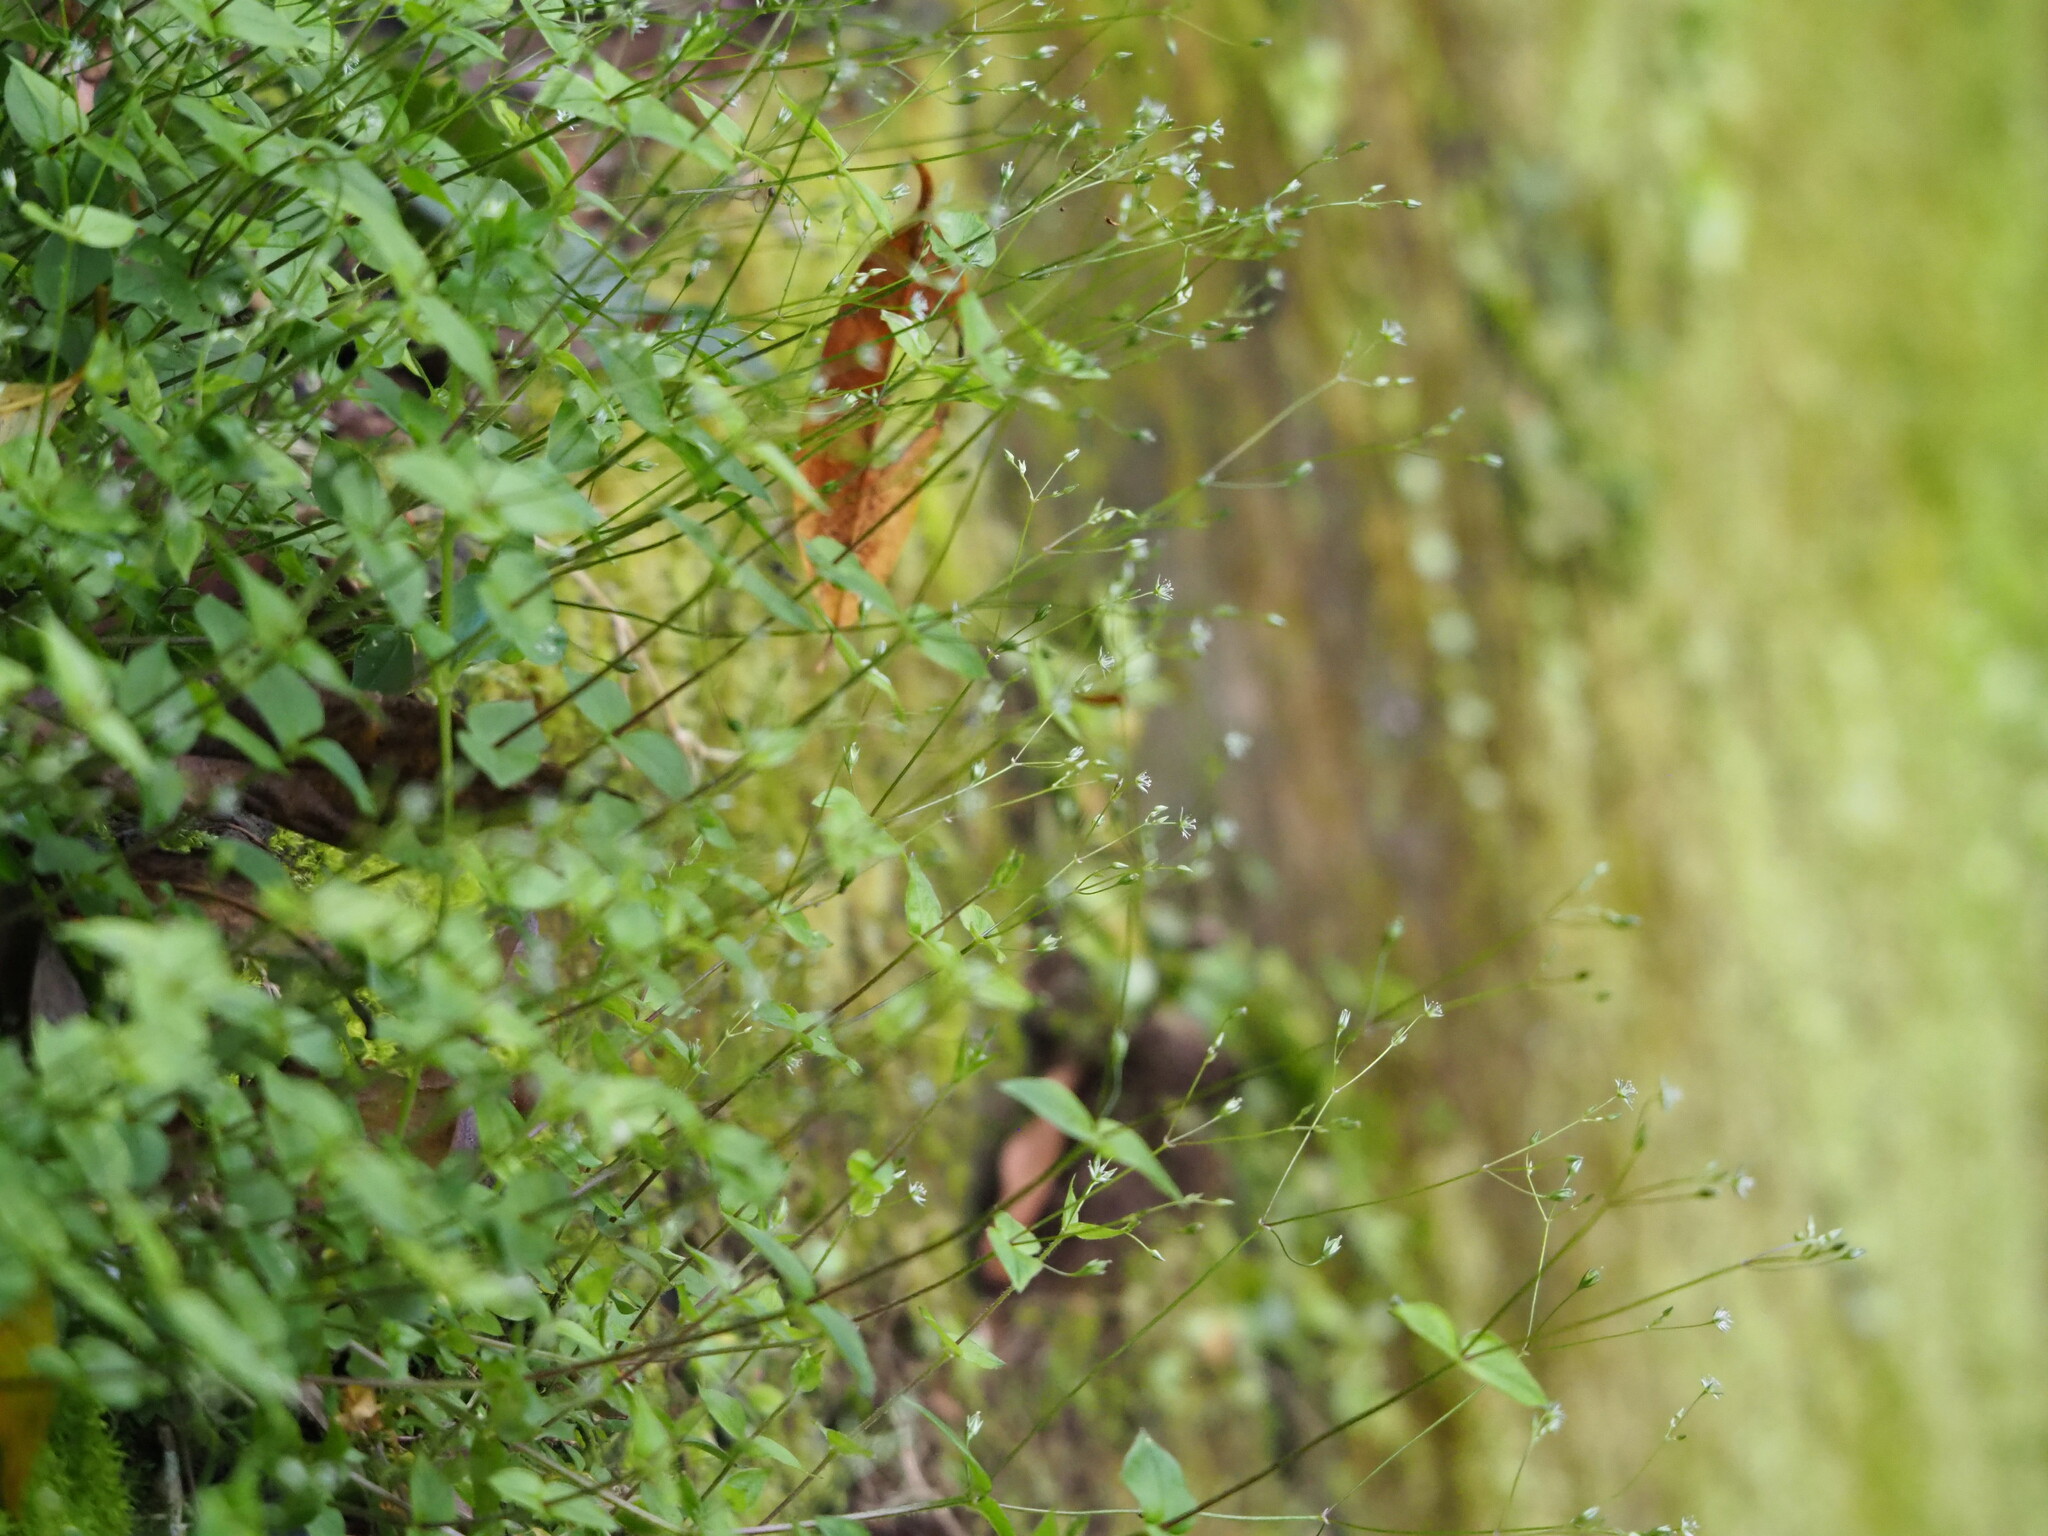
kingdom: Plantae
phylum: Tracheophyta
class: Magnoliopsida
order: Caryophyllales
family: Caryophyllaceae
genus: Stellaria
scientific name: Stellaria reticulivena
